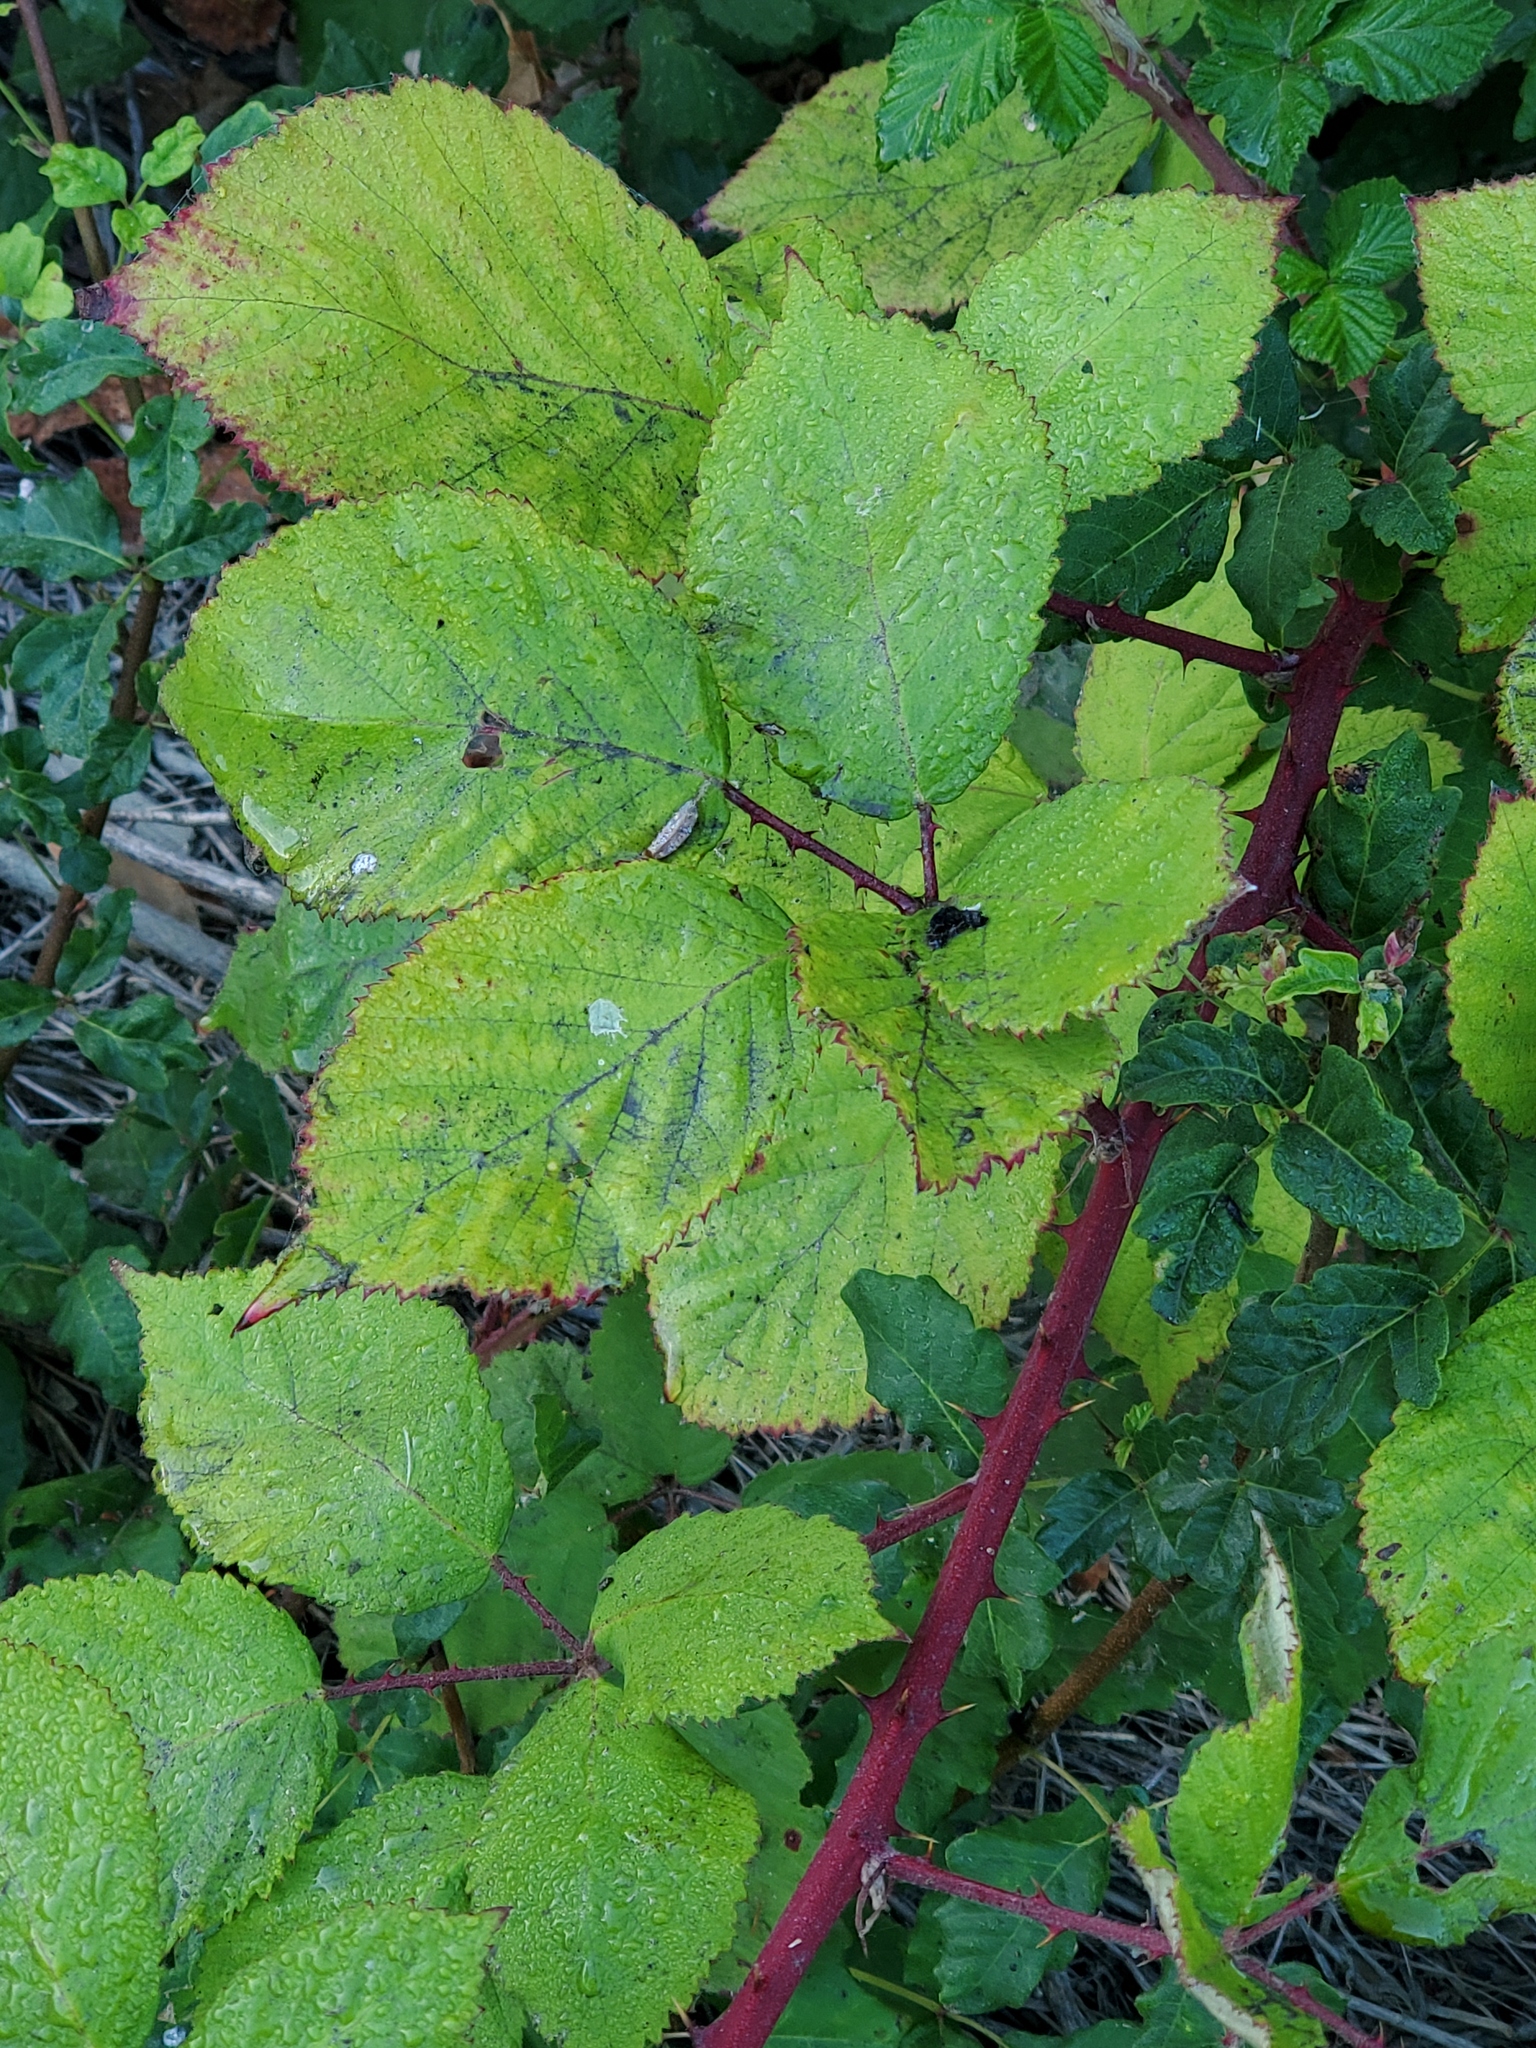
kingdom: Plantae
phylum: Tracheophyta
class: Magnoliopsida
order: Rosales
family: Rosaceae
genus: Rubus
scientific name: Rubus armeniacus
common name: Himalayan blackberry
